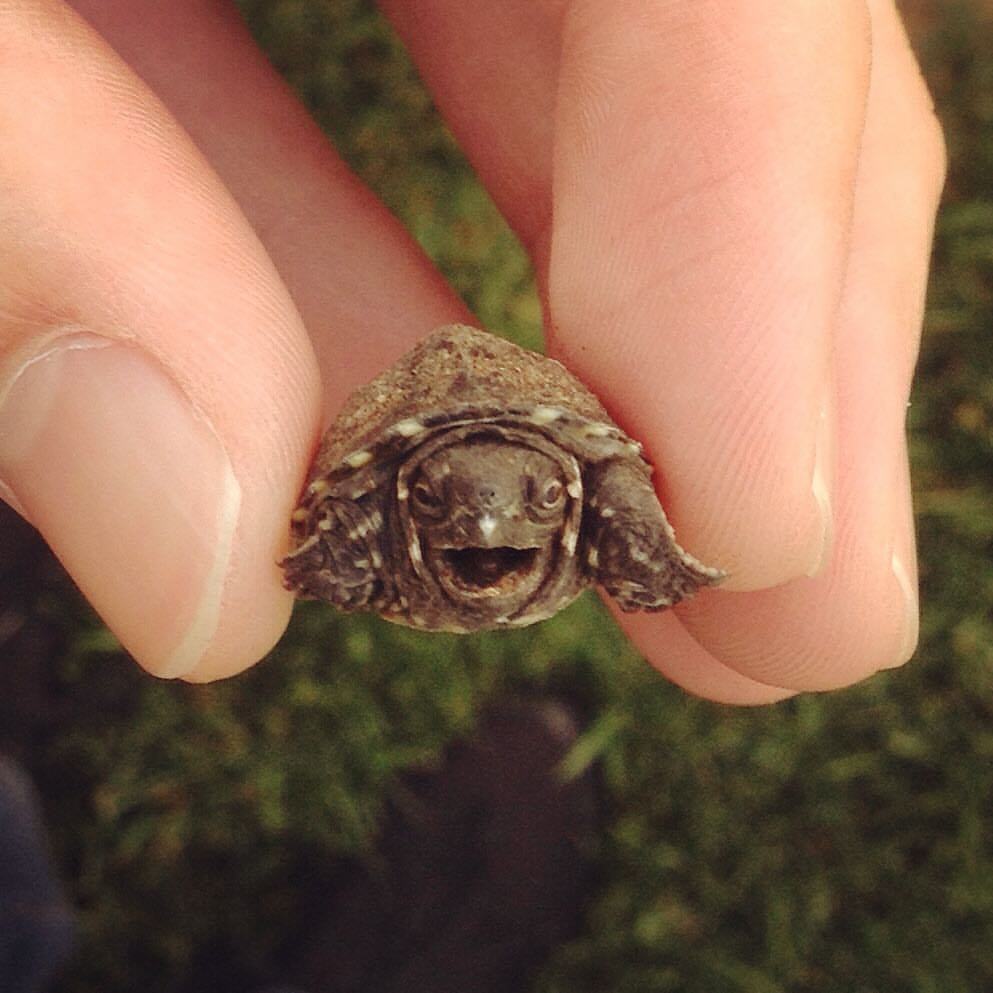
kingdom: Animalia
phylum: Chordata
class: Testudines
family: Kinosternidae
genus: Sternotherus
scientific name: Sternotherus odoratus
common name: Common musk turtle
